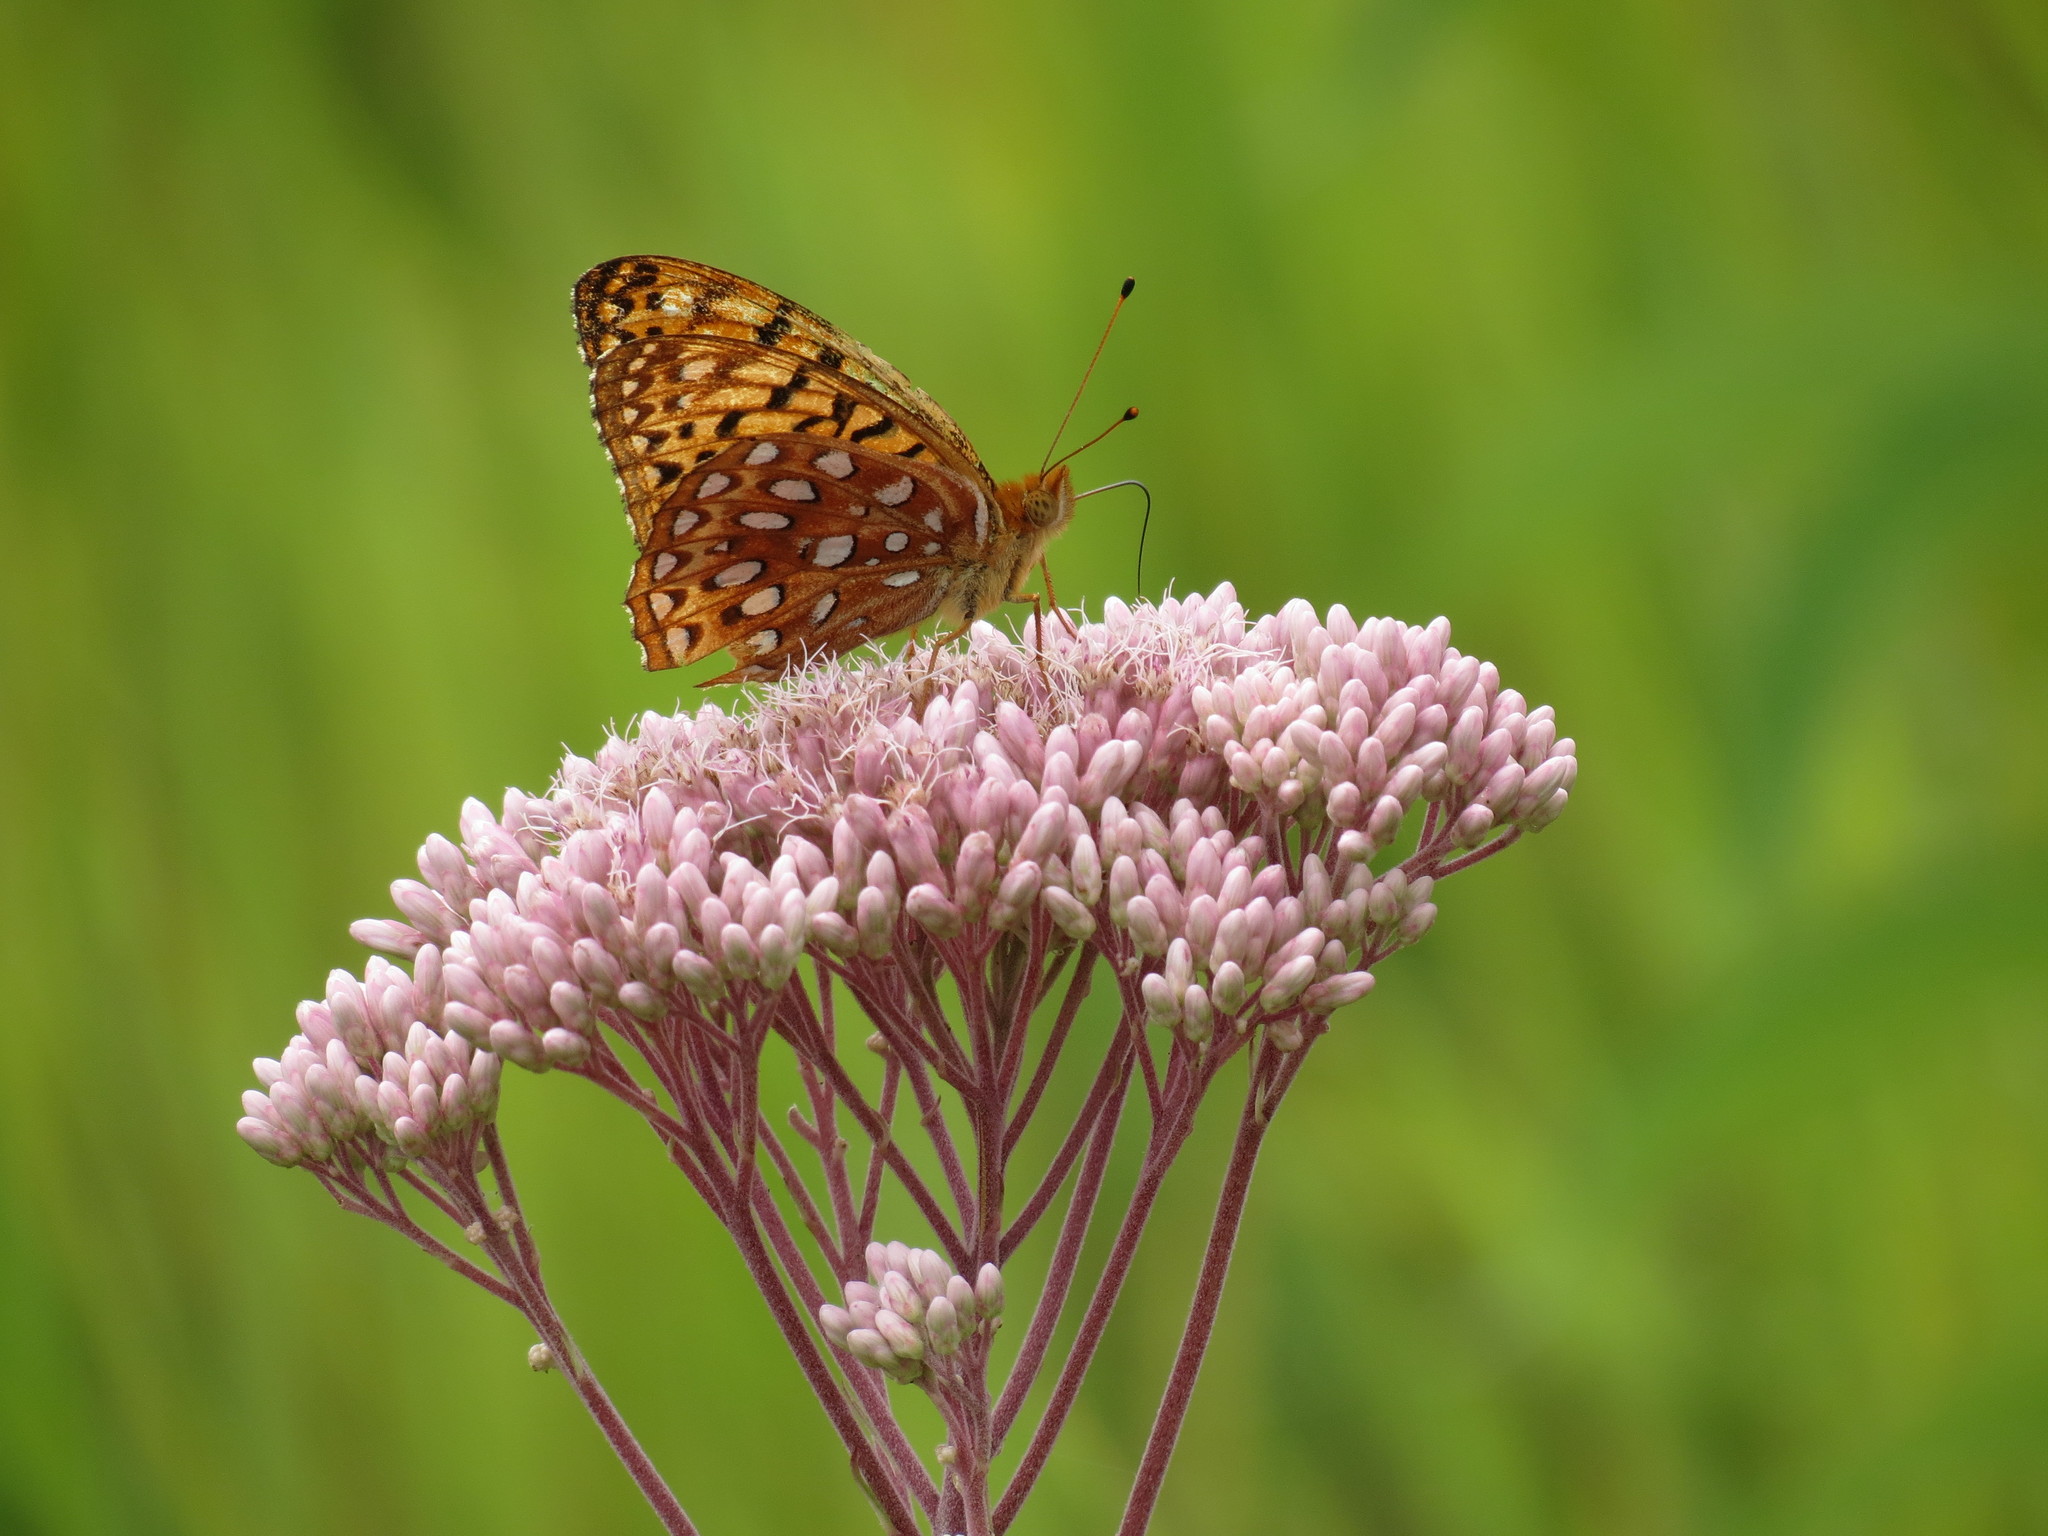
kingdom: Animalia
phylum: Arthropoda
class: Insecta
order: Lepidoptera
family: Nymphalidae
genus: Speyeria
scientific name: Speyeria aphrodite
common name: Aphrodite friitllary
